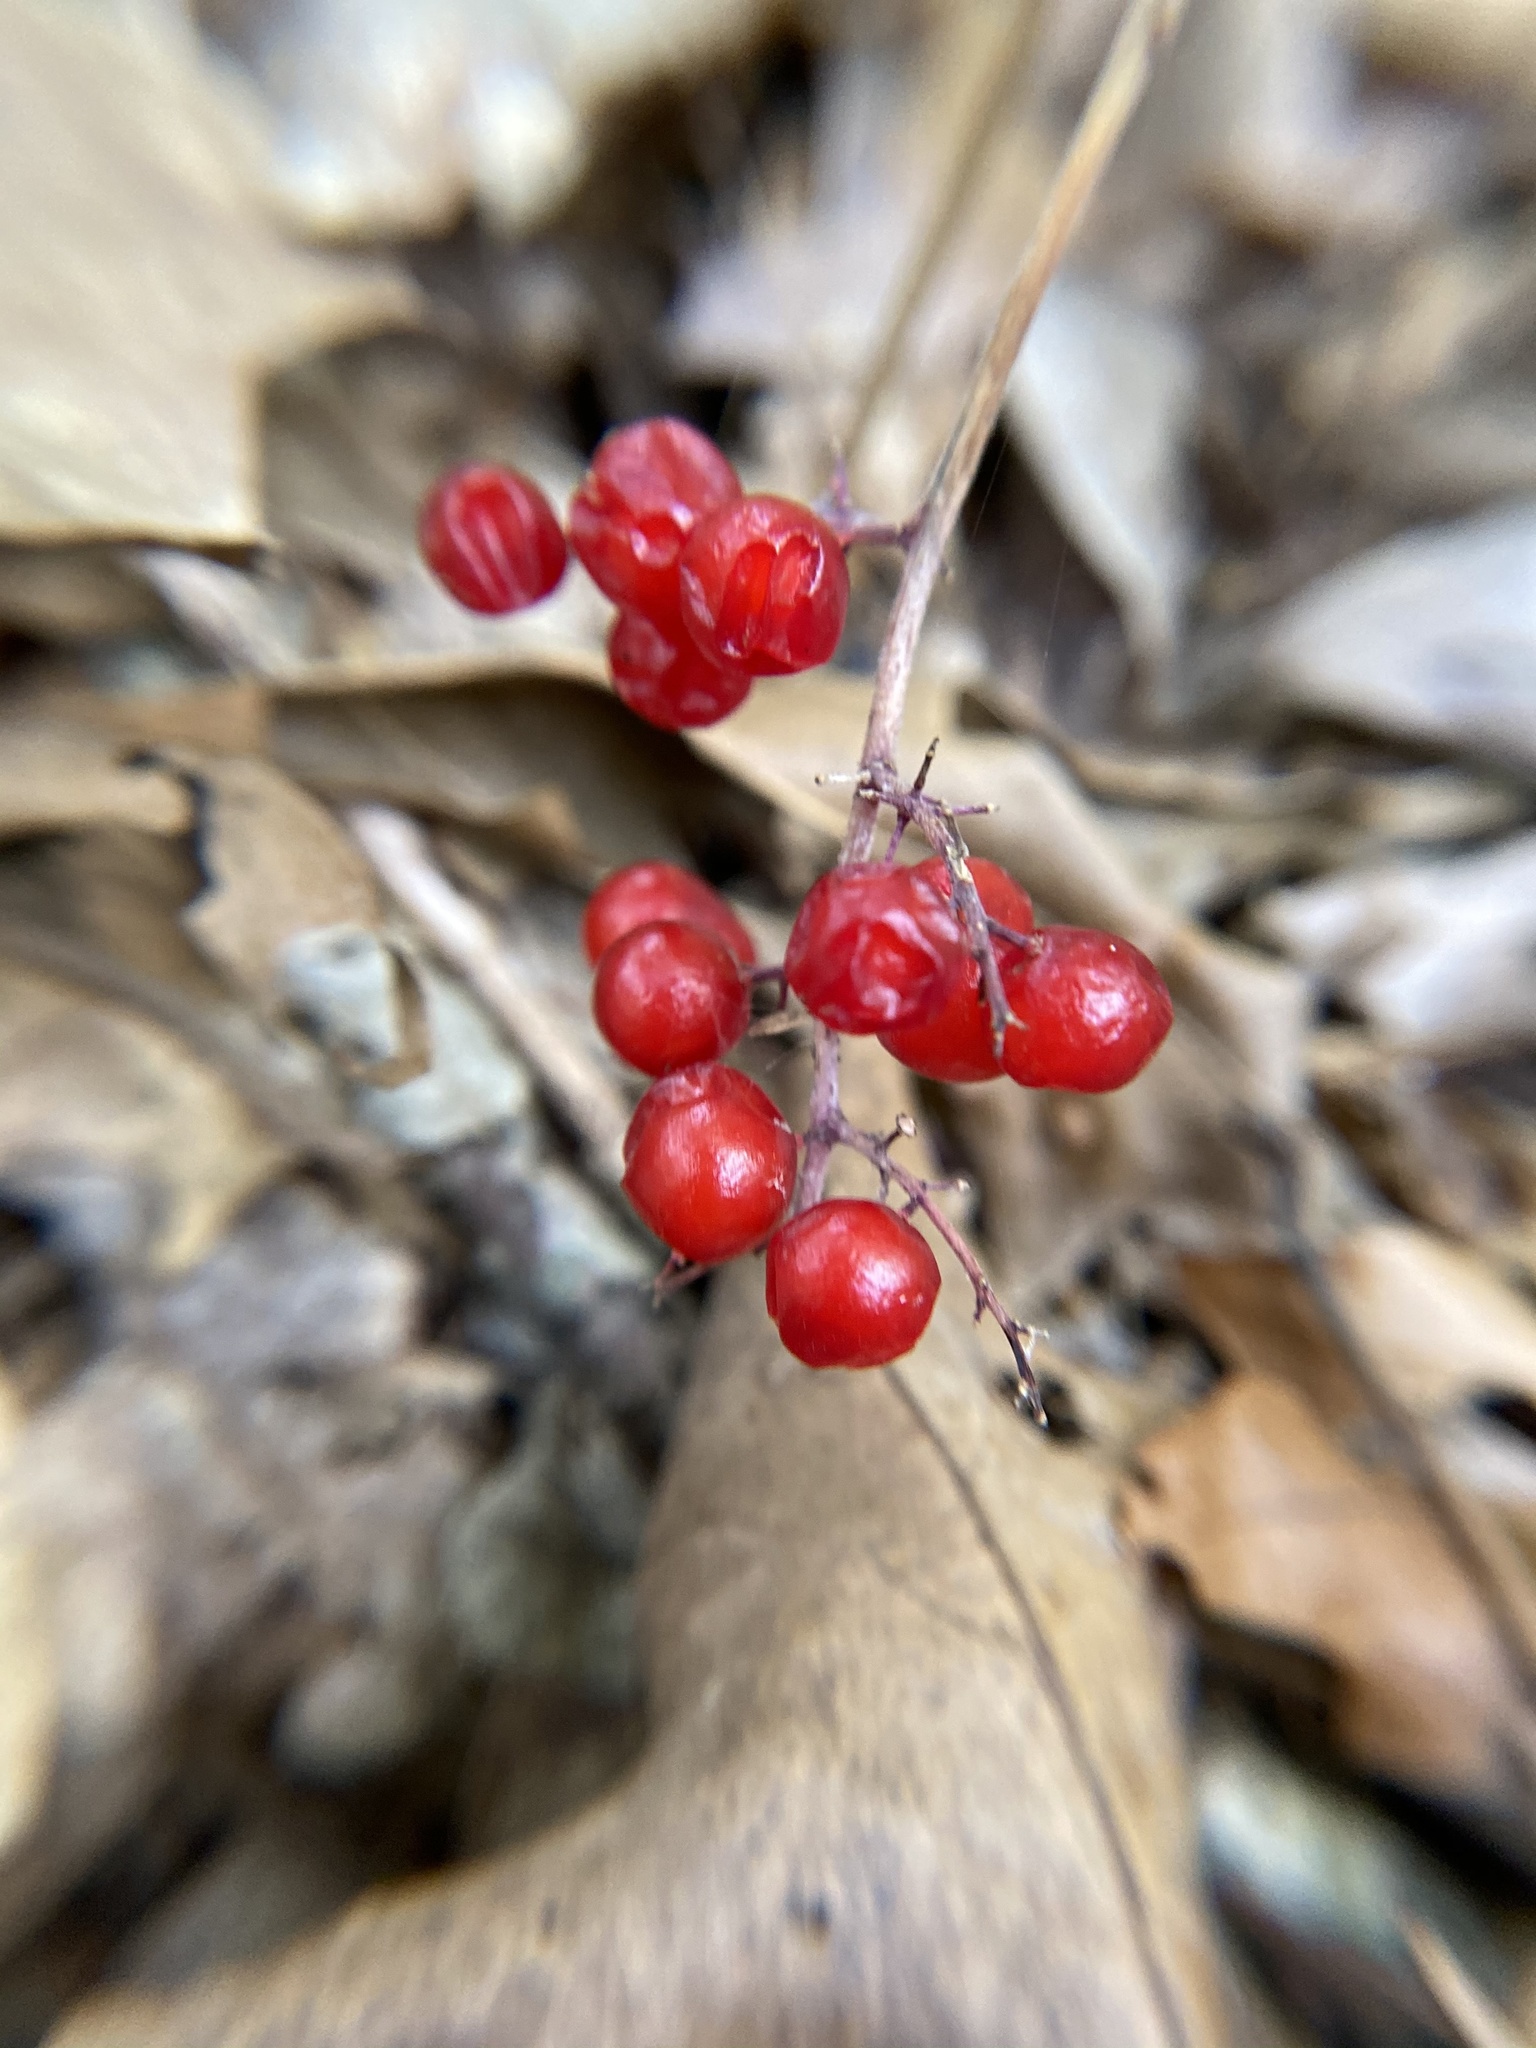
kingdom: Plantae
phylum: Tracheophyta
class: Liliopsida
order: Asparagales
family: Asparagaceae
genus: Maianthemum
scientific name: Maianthemum racemosum
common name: False spikenard
